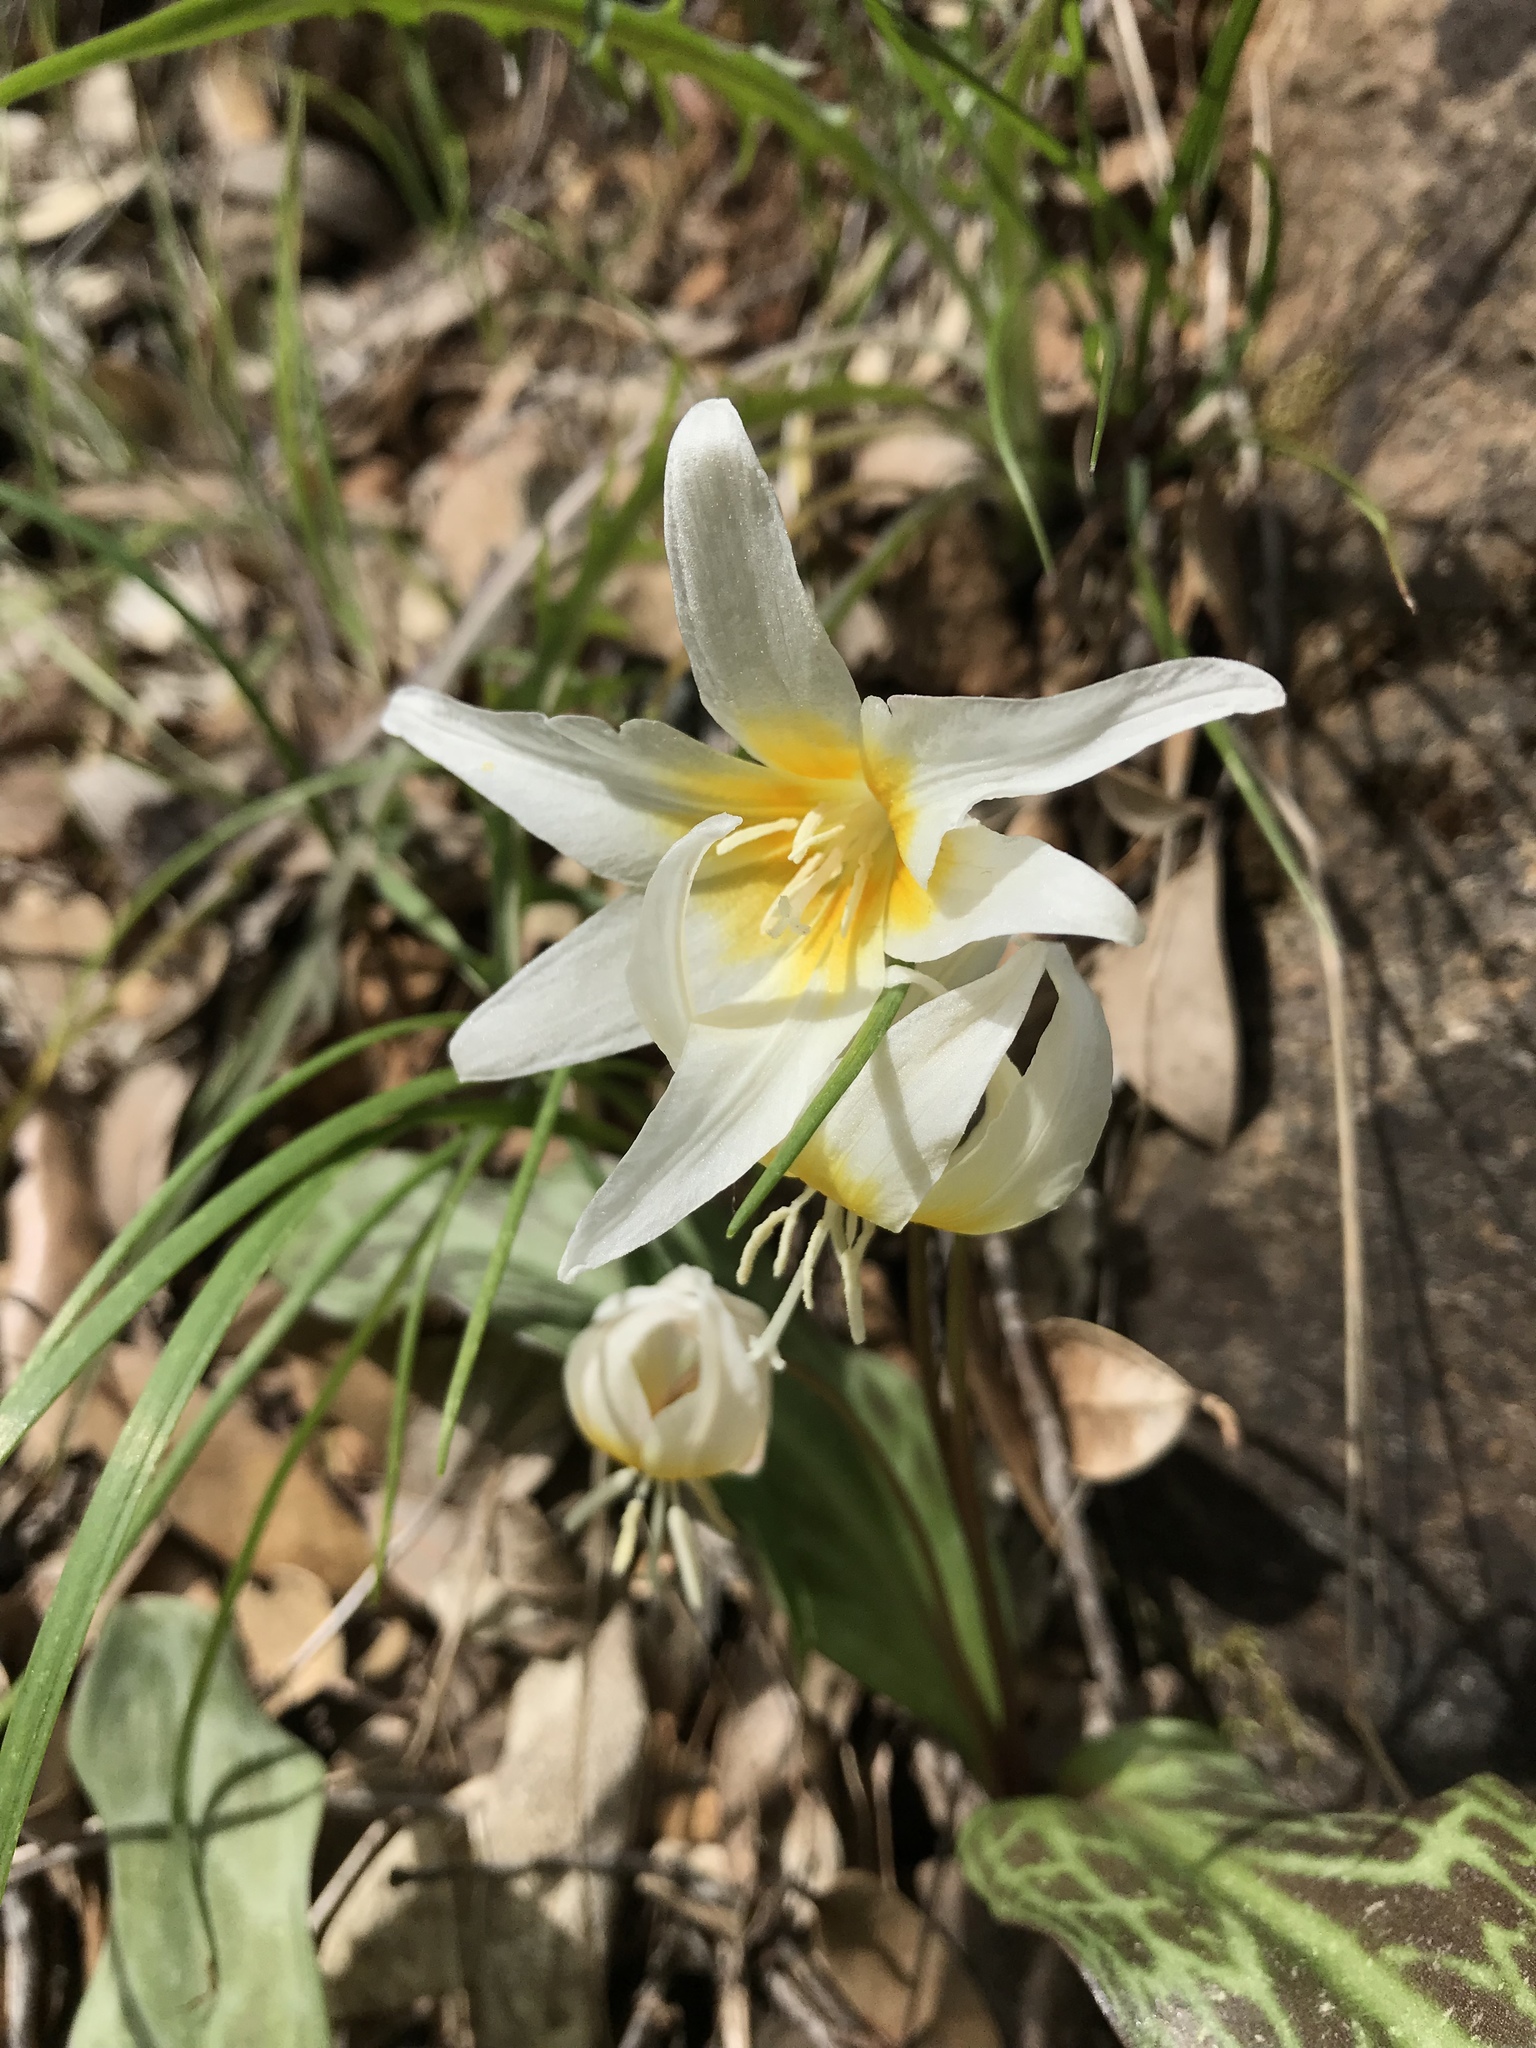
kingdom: Plantae
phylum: Tracheophyta
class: Liliopsida
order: Liliales
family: Liliaceae
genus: Erythronium
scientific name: Erythronium multiscapideum
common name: Sierra foothills fawn-lily
